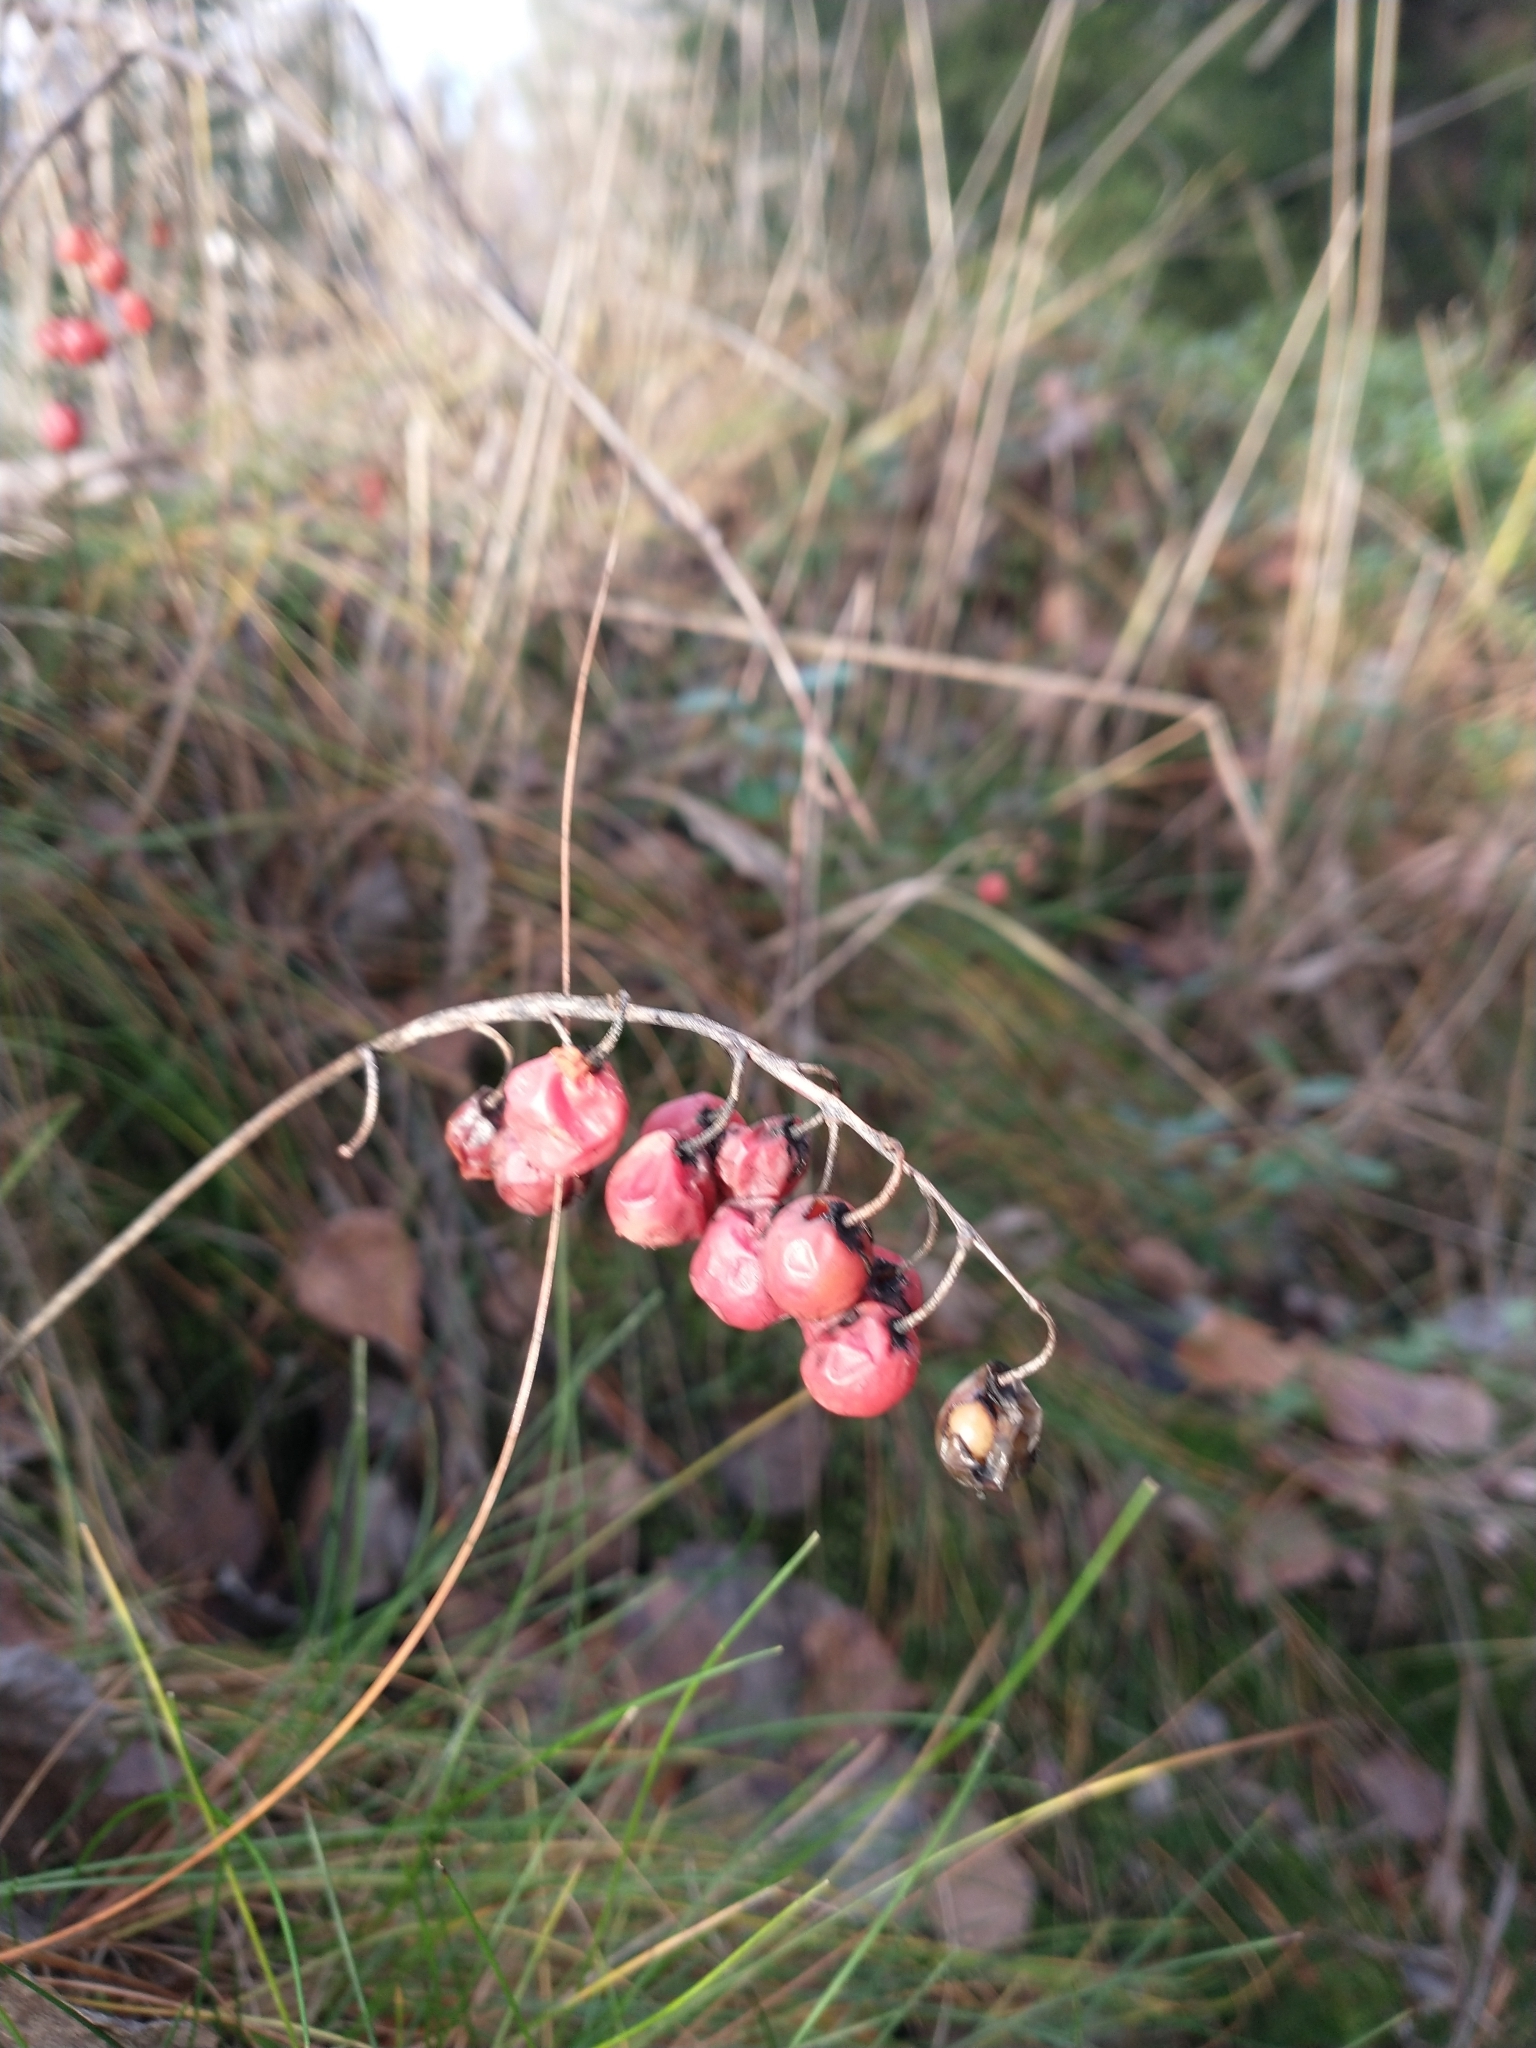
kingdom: Plantae
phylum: Tracheophyta
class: Liliopsida
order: Asparagales
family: Asparagaceae
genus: Convallaria
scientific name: Convallaria majalis
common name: Lily-of-the-valley
